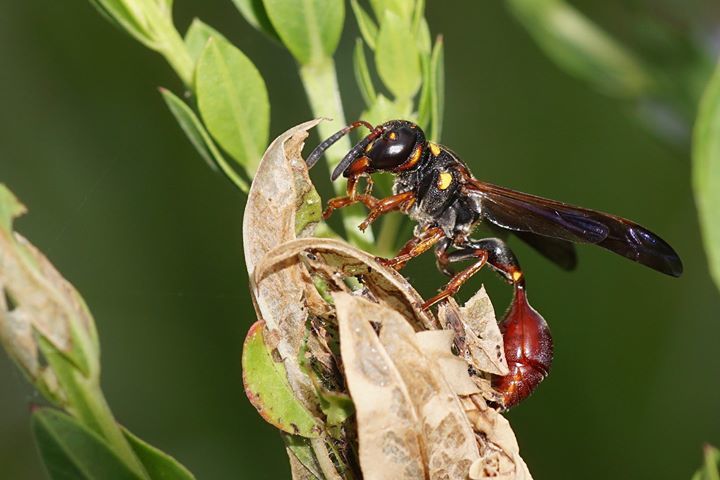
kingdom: Animalia
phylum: Arthropoda
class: Insecta
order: Hymenoptera
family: Eumenidae
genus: Zethus
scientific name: Zethus slossonae
